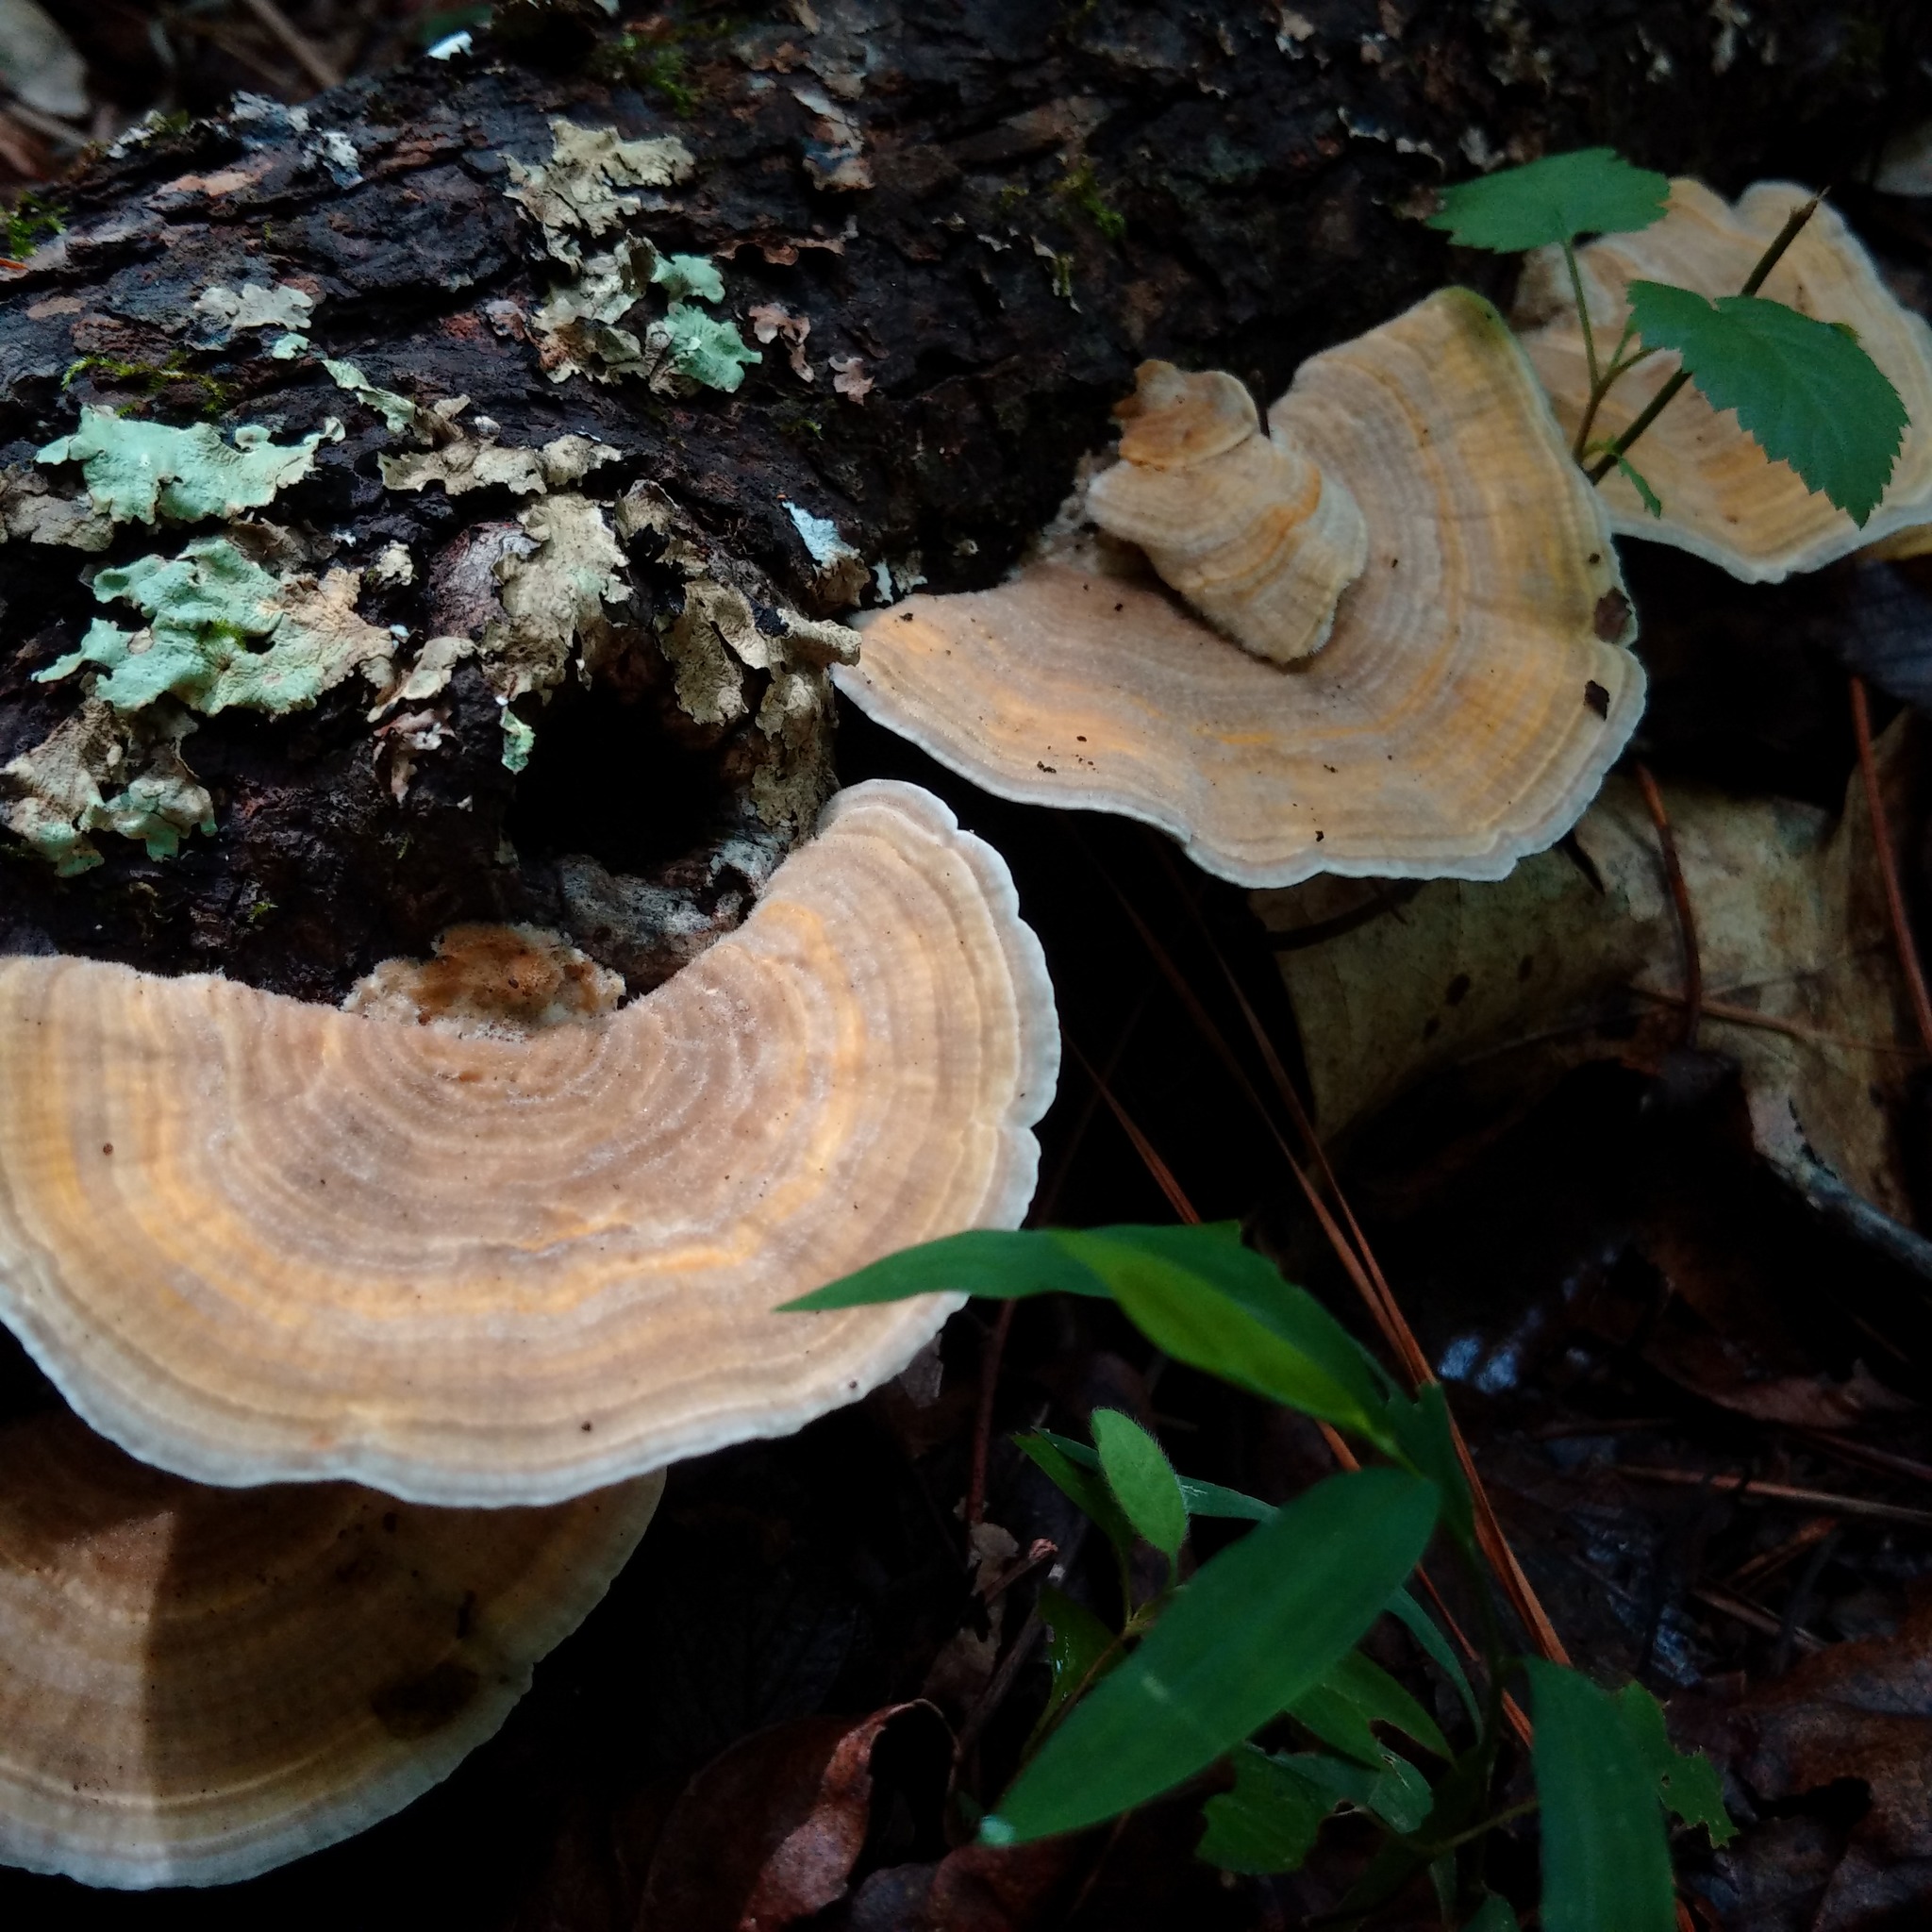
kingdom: Fungi
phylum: Basidiomycota
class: Agaricomycetes
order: Polyporales
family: Polyporaceae
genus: Lenzites
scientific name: Lenzites betulinus
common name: Birch mazegill
